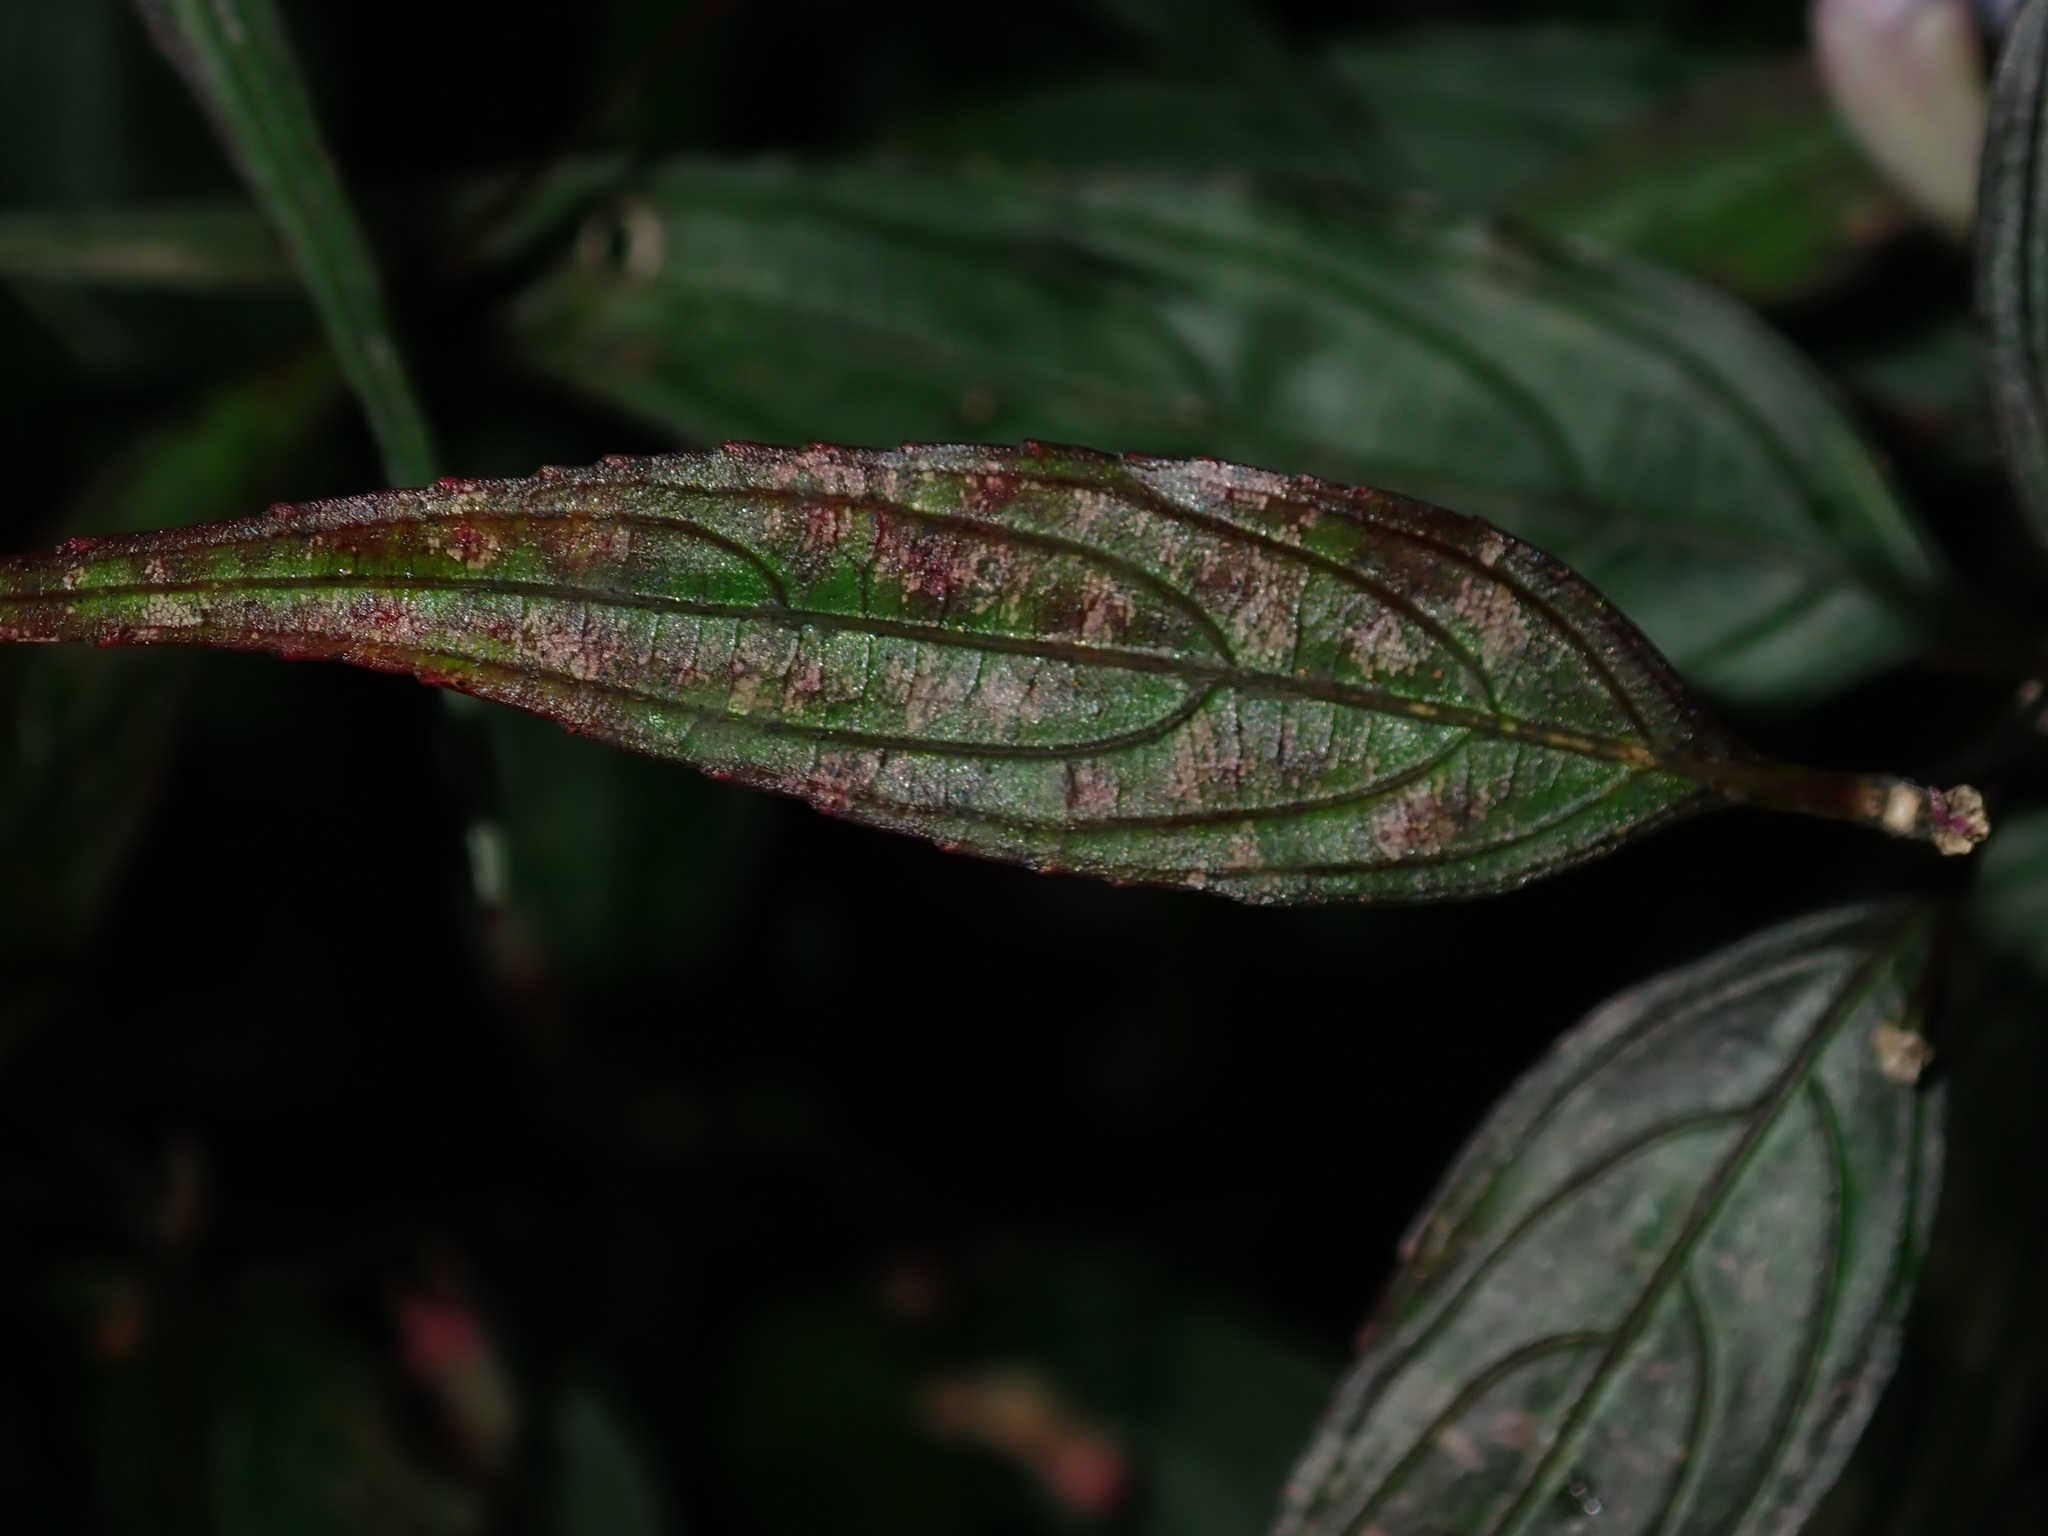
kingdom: Plantae
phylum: Tracheophyta
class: Magnoliopsida
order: Lamiales
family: Acanthaceae
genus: Strobilanthes
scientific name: Strobilanthes anisophylla
